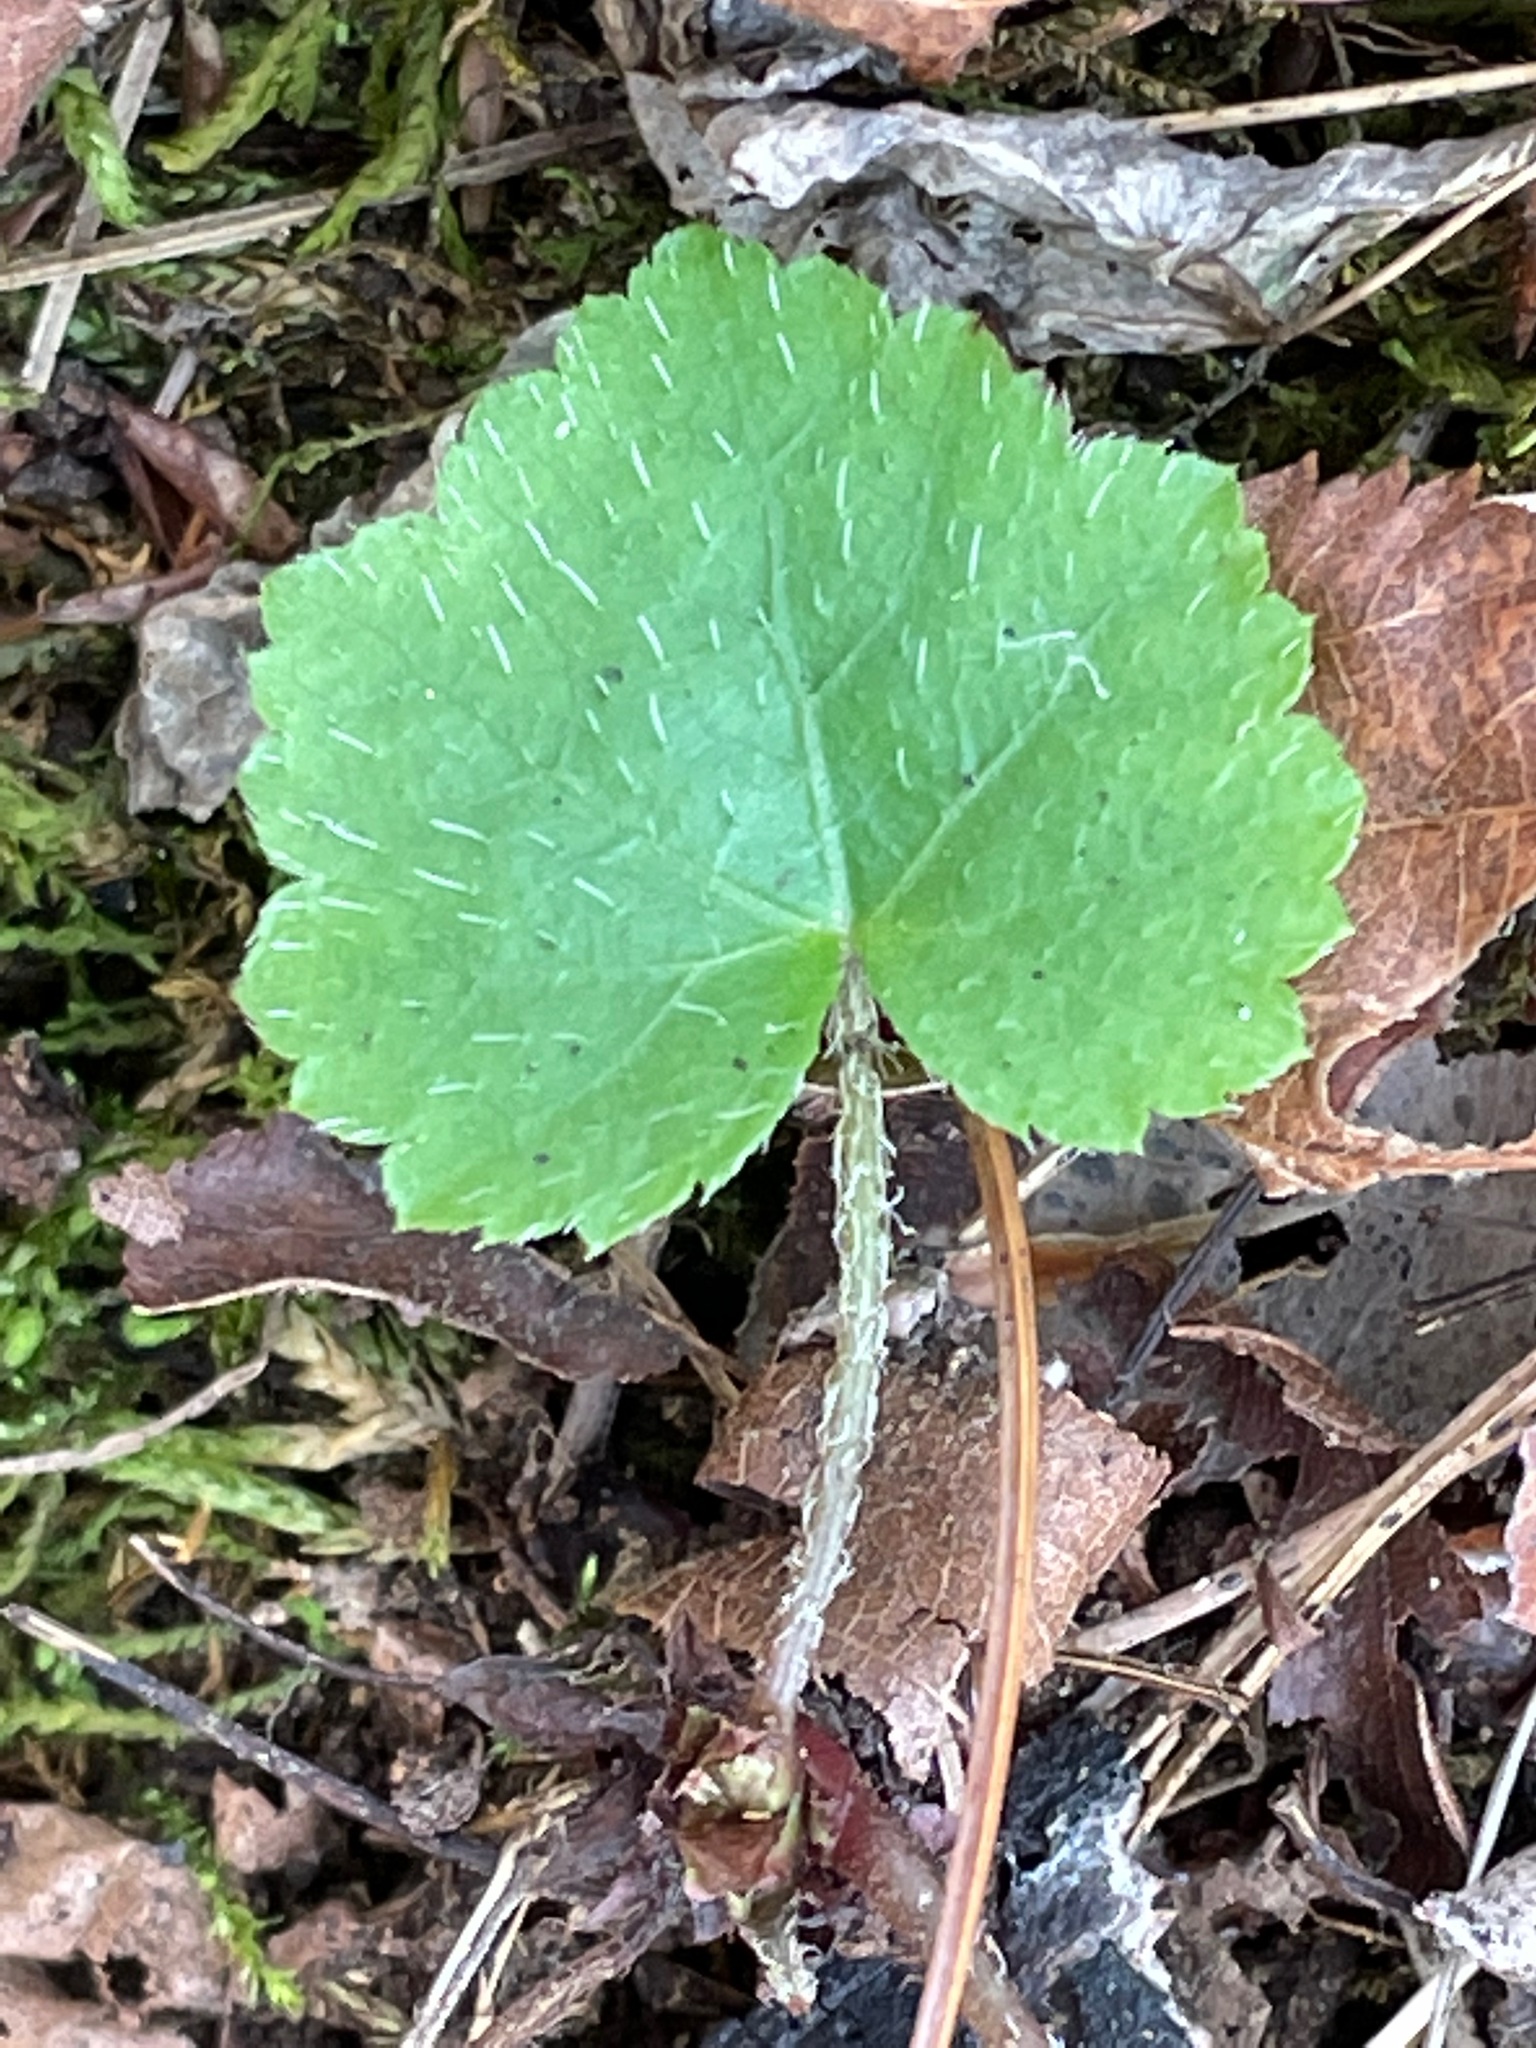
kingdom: Plantae
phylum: Tracheophyta
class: Magnoliopsida
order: Saxifragales
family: Saxifragaceae
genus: Mitella
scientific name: Mitella diphylla
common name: Coolwort
